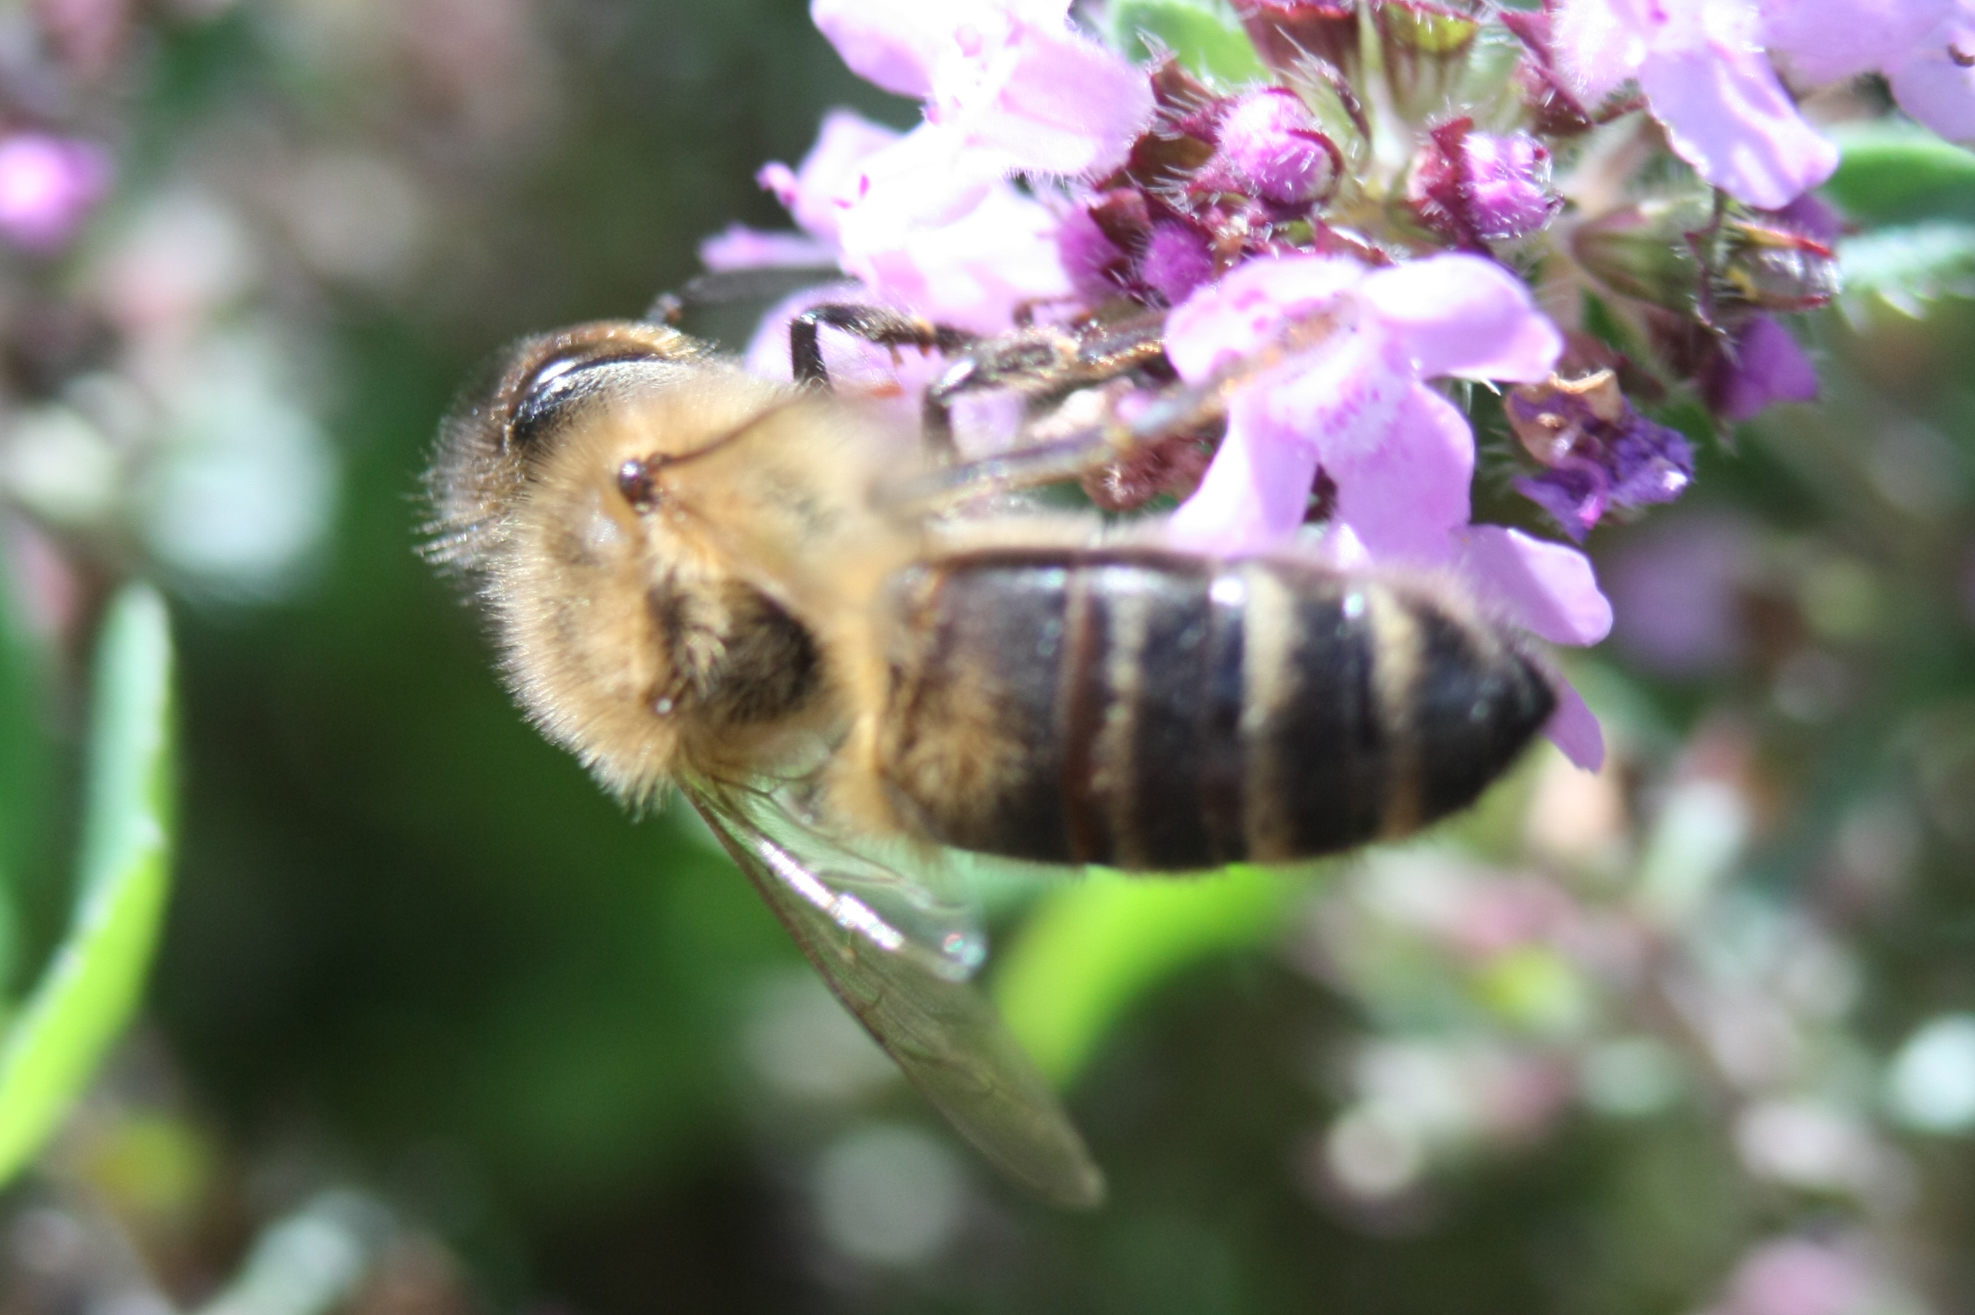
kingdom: Animalia
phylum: Arthropoda
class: Insecta
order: Hymenoptera
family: Apidae
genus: Apis
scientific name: Apis mellifera
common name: Honey bee
